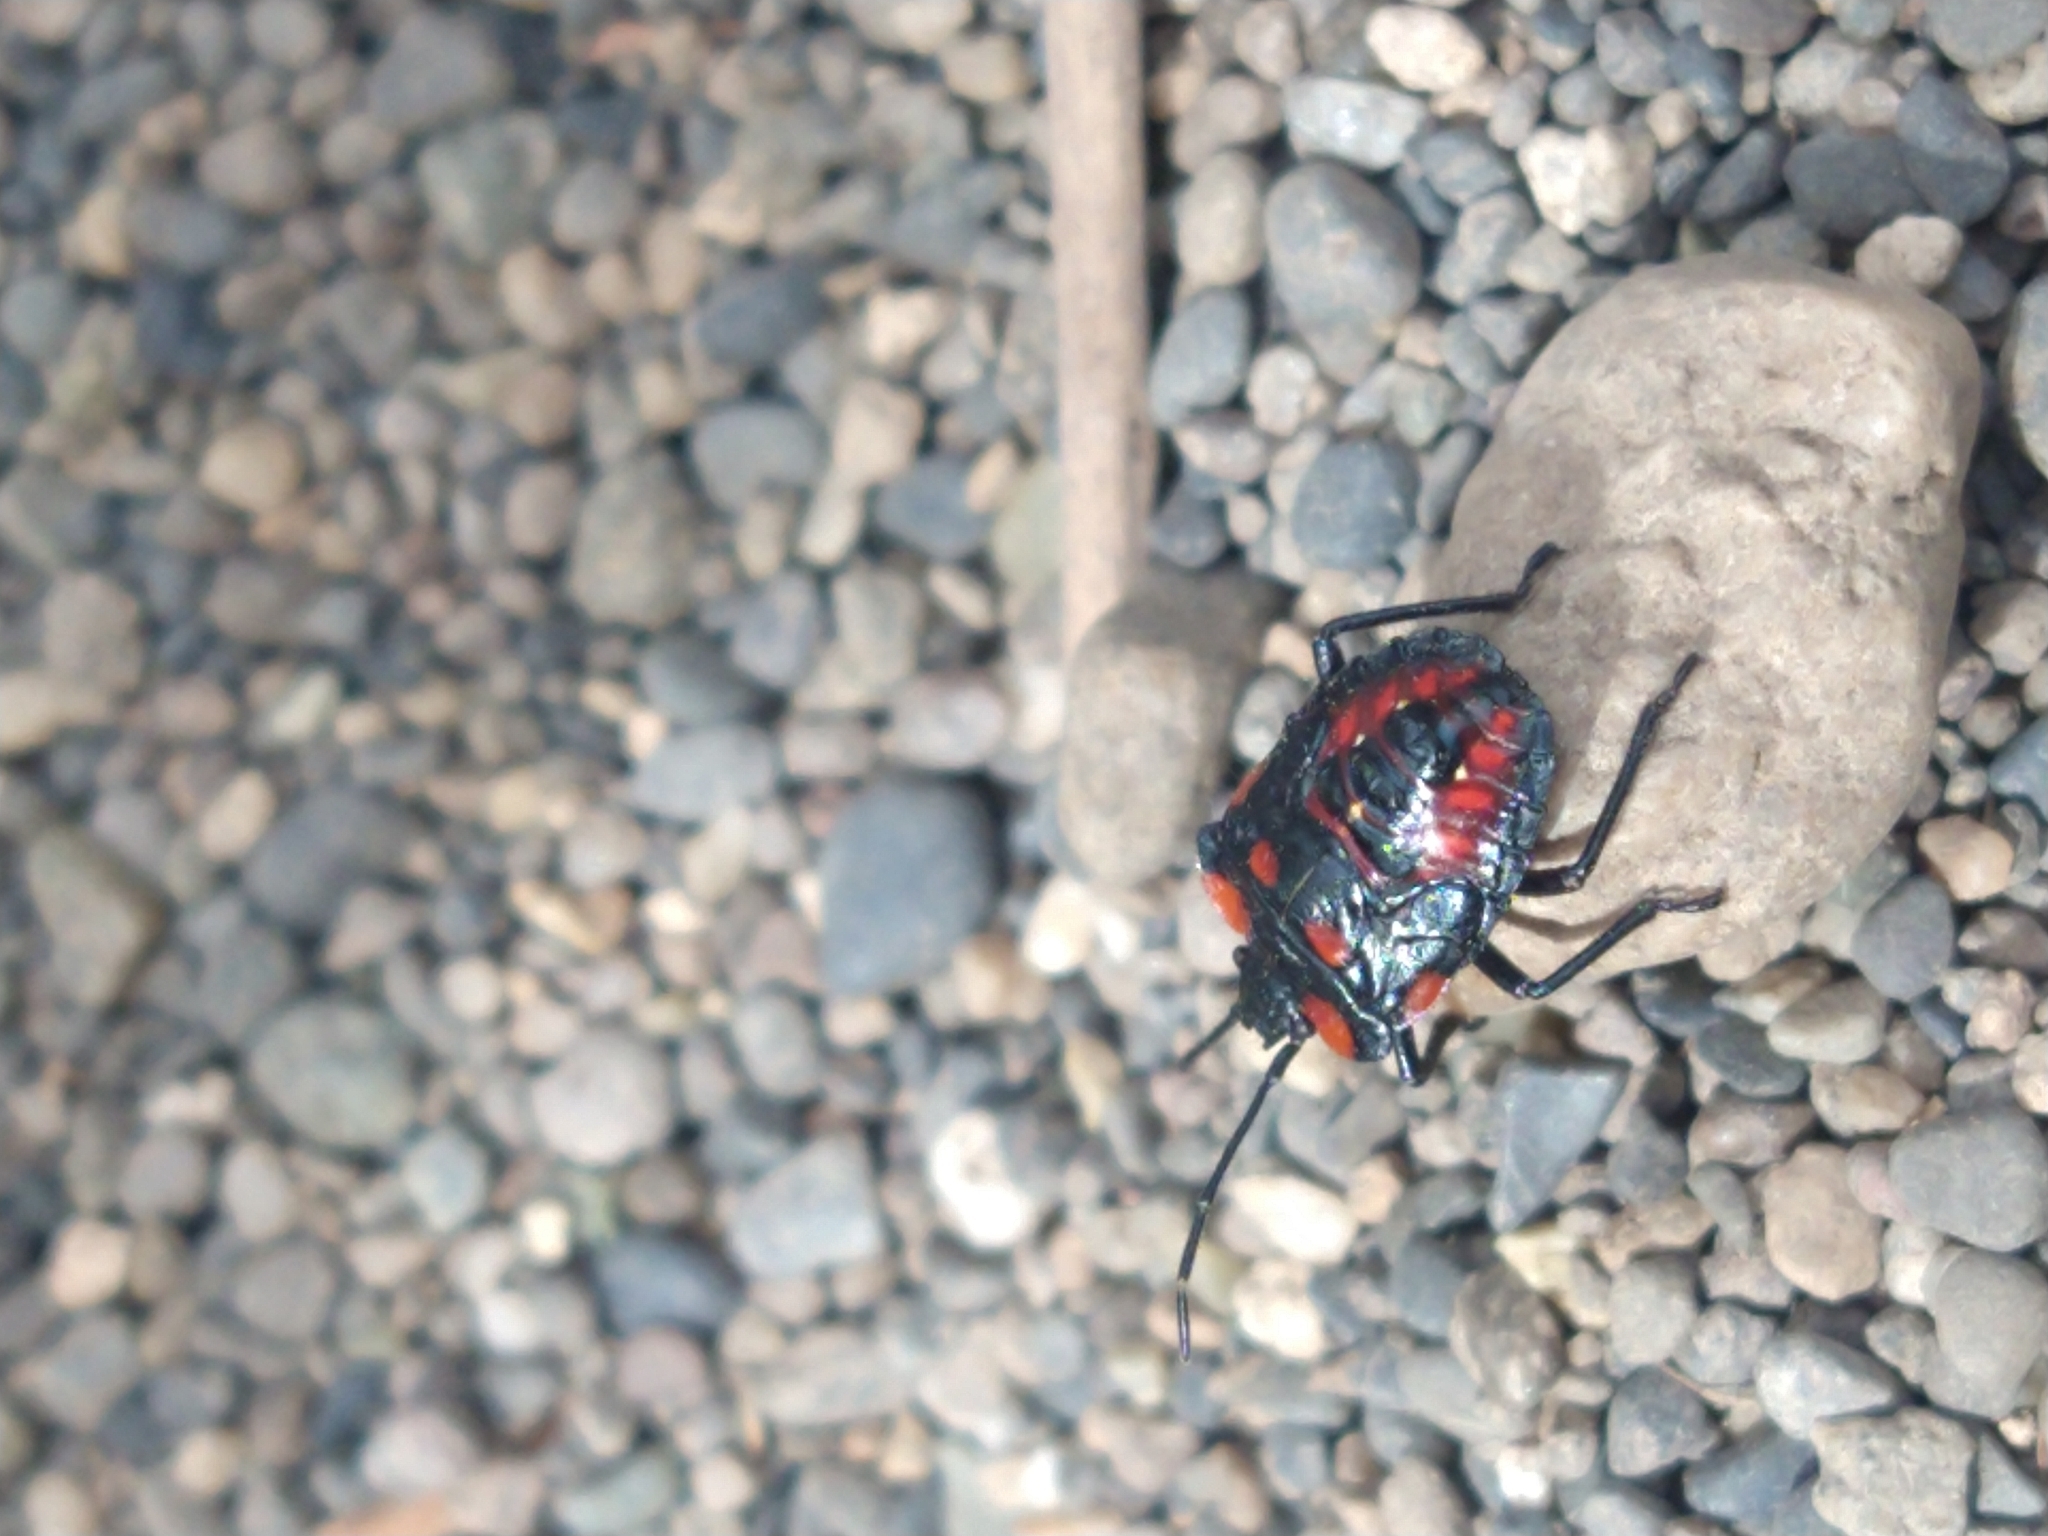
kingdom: Animalia
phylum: Arthropoda
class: Insecta
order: Hemiptera
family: Acanthosomatidae
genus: Phorbanta
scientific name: Phorbanta variabilis
